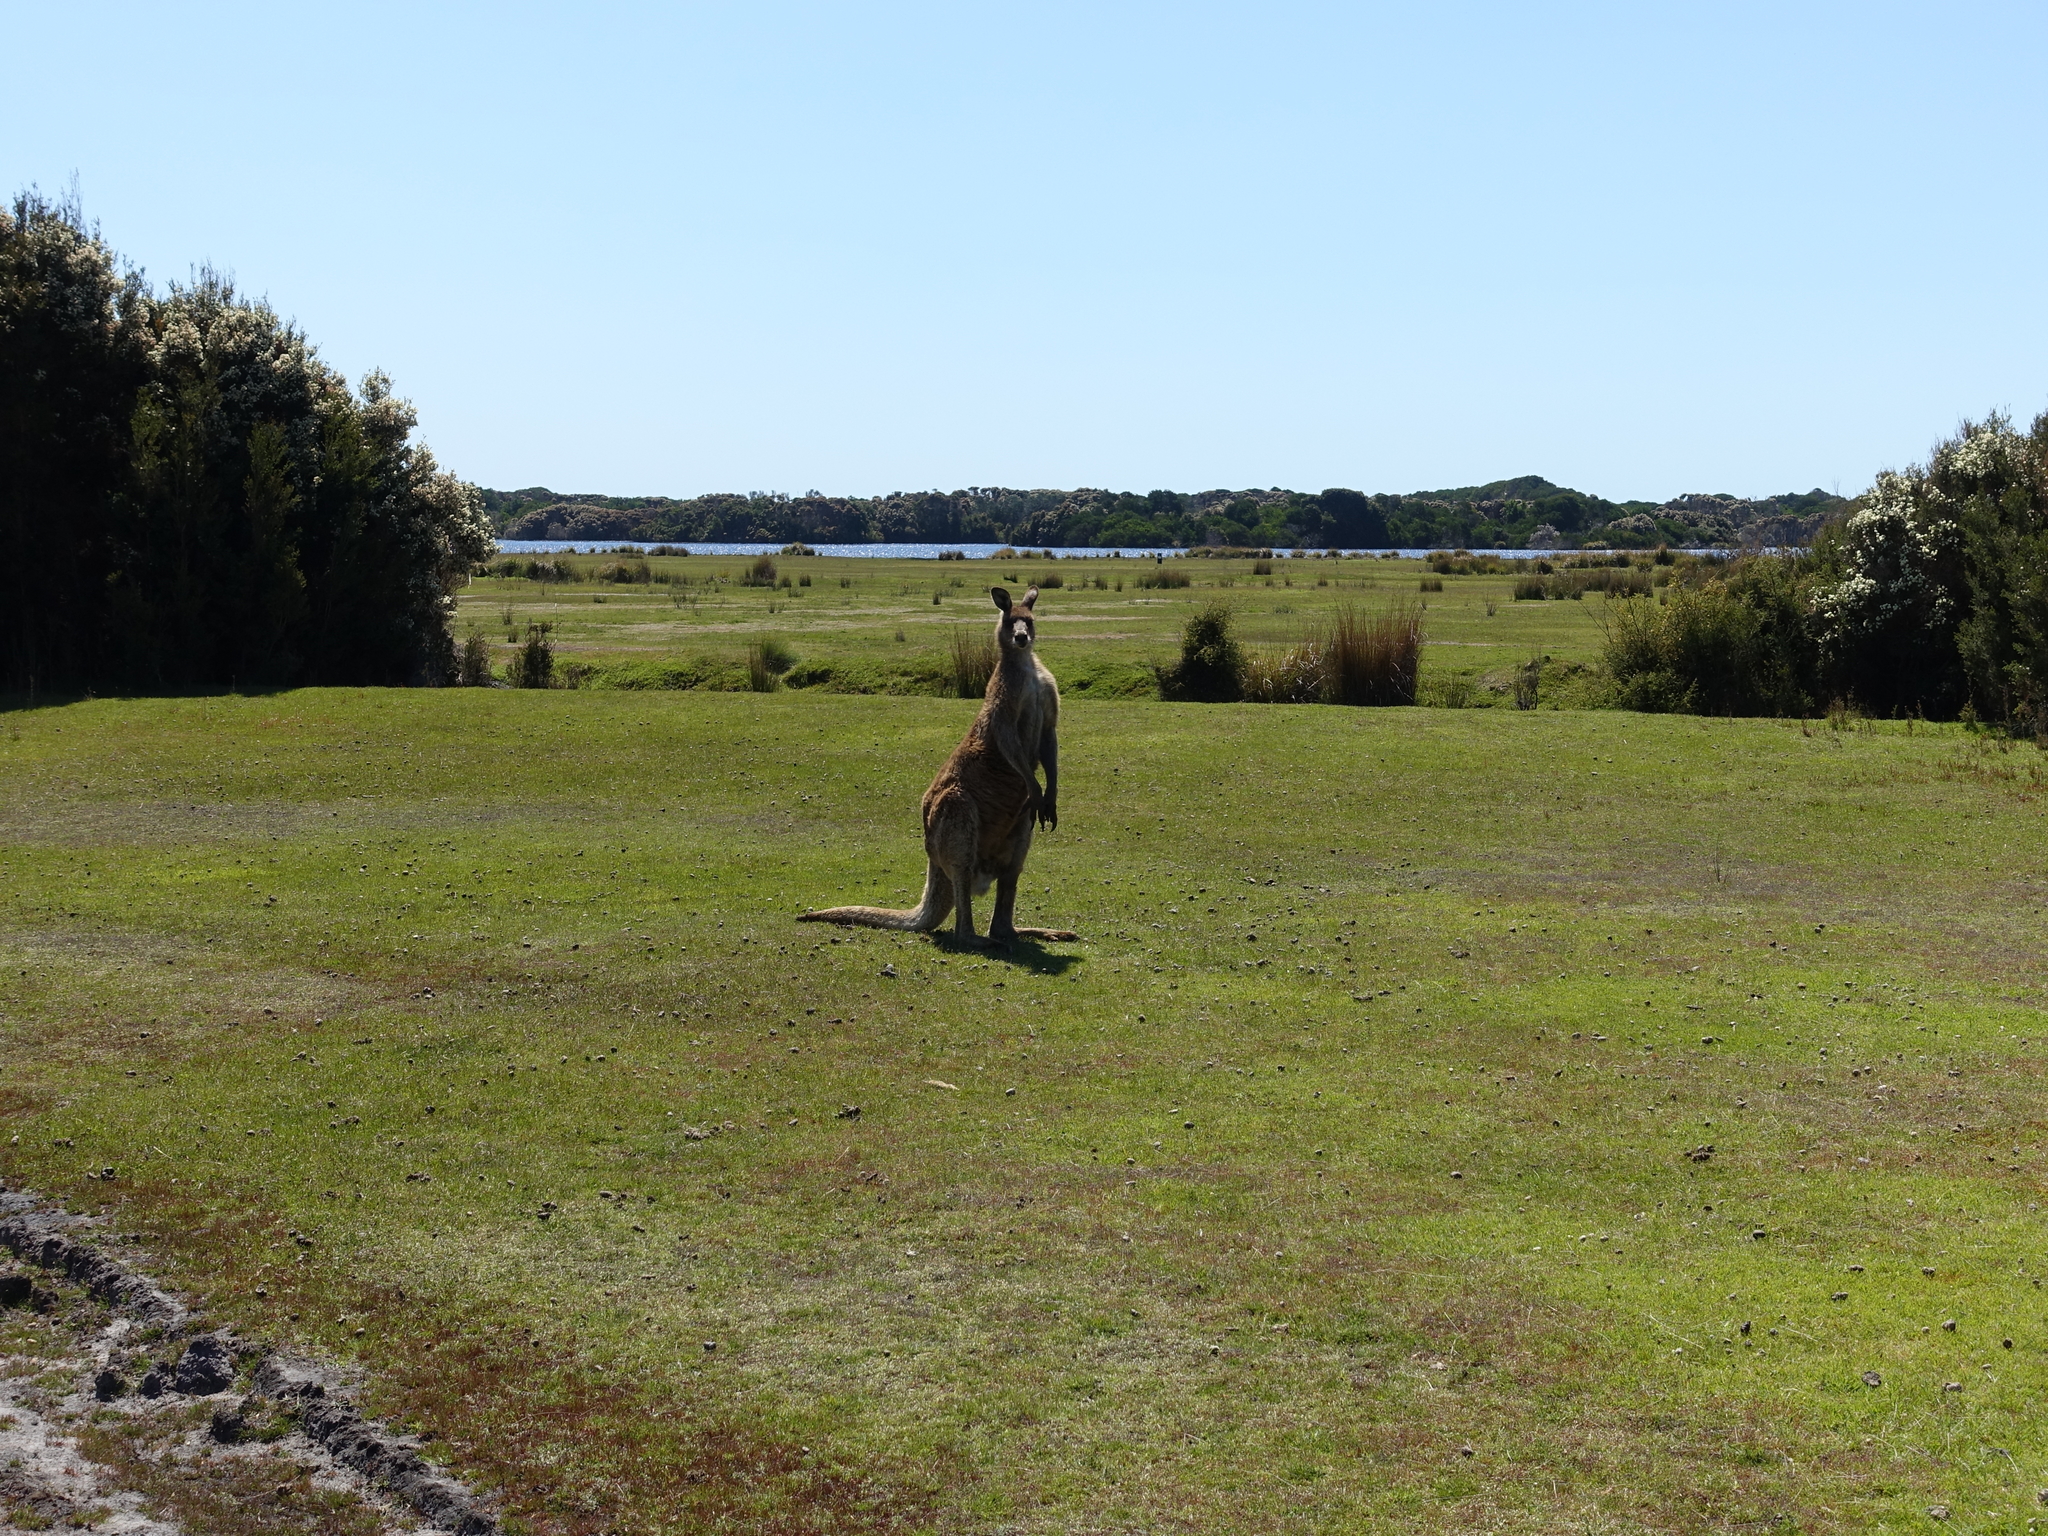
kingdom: Animalia
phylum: Chordata
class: Mammalia
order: Diprotodontia
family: Macropodidae
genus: Macropus
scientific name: Macropus giganteus
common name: Eastern grey kangaroo
